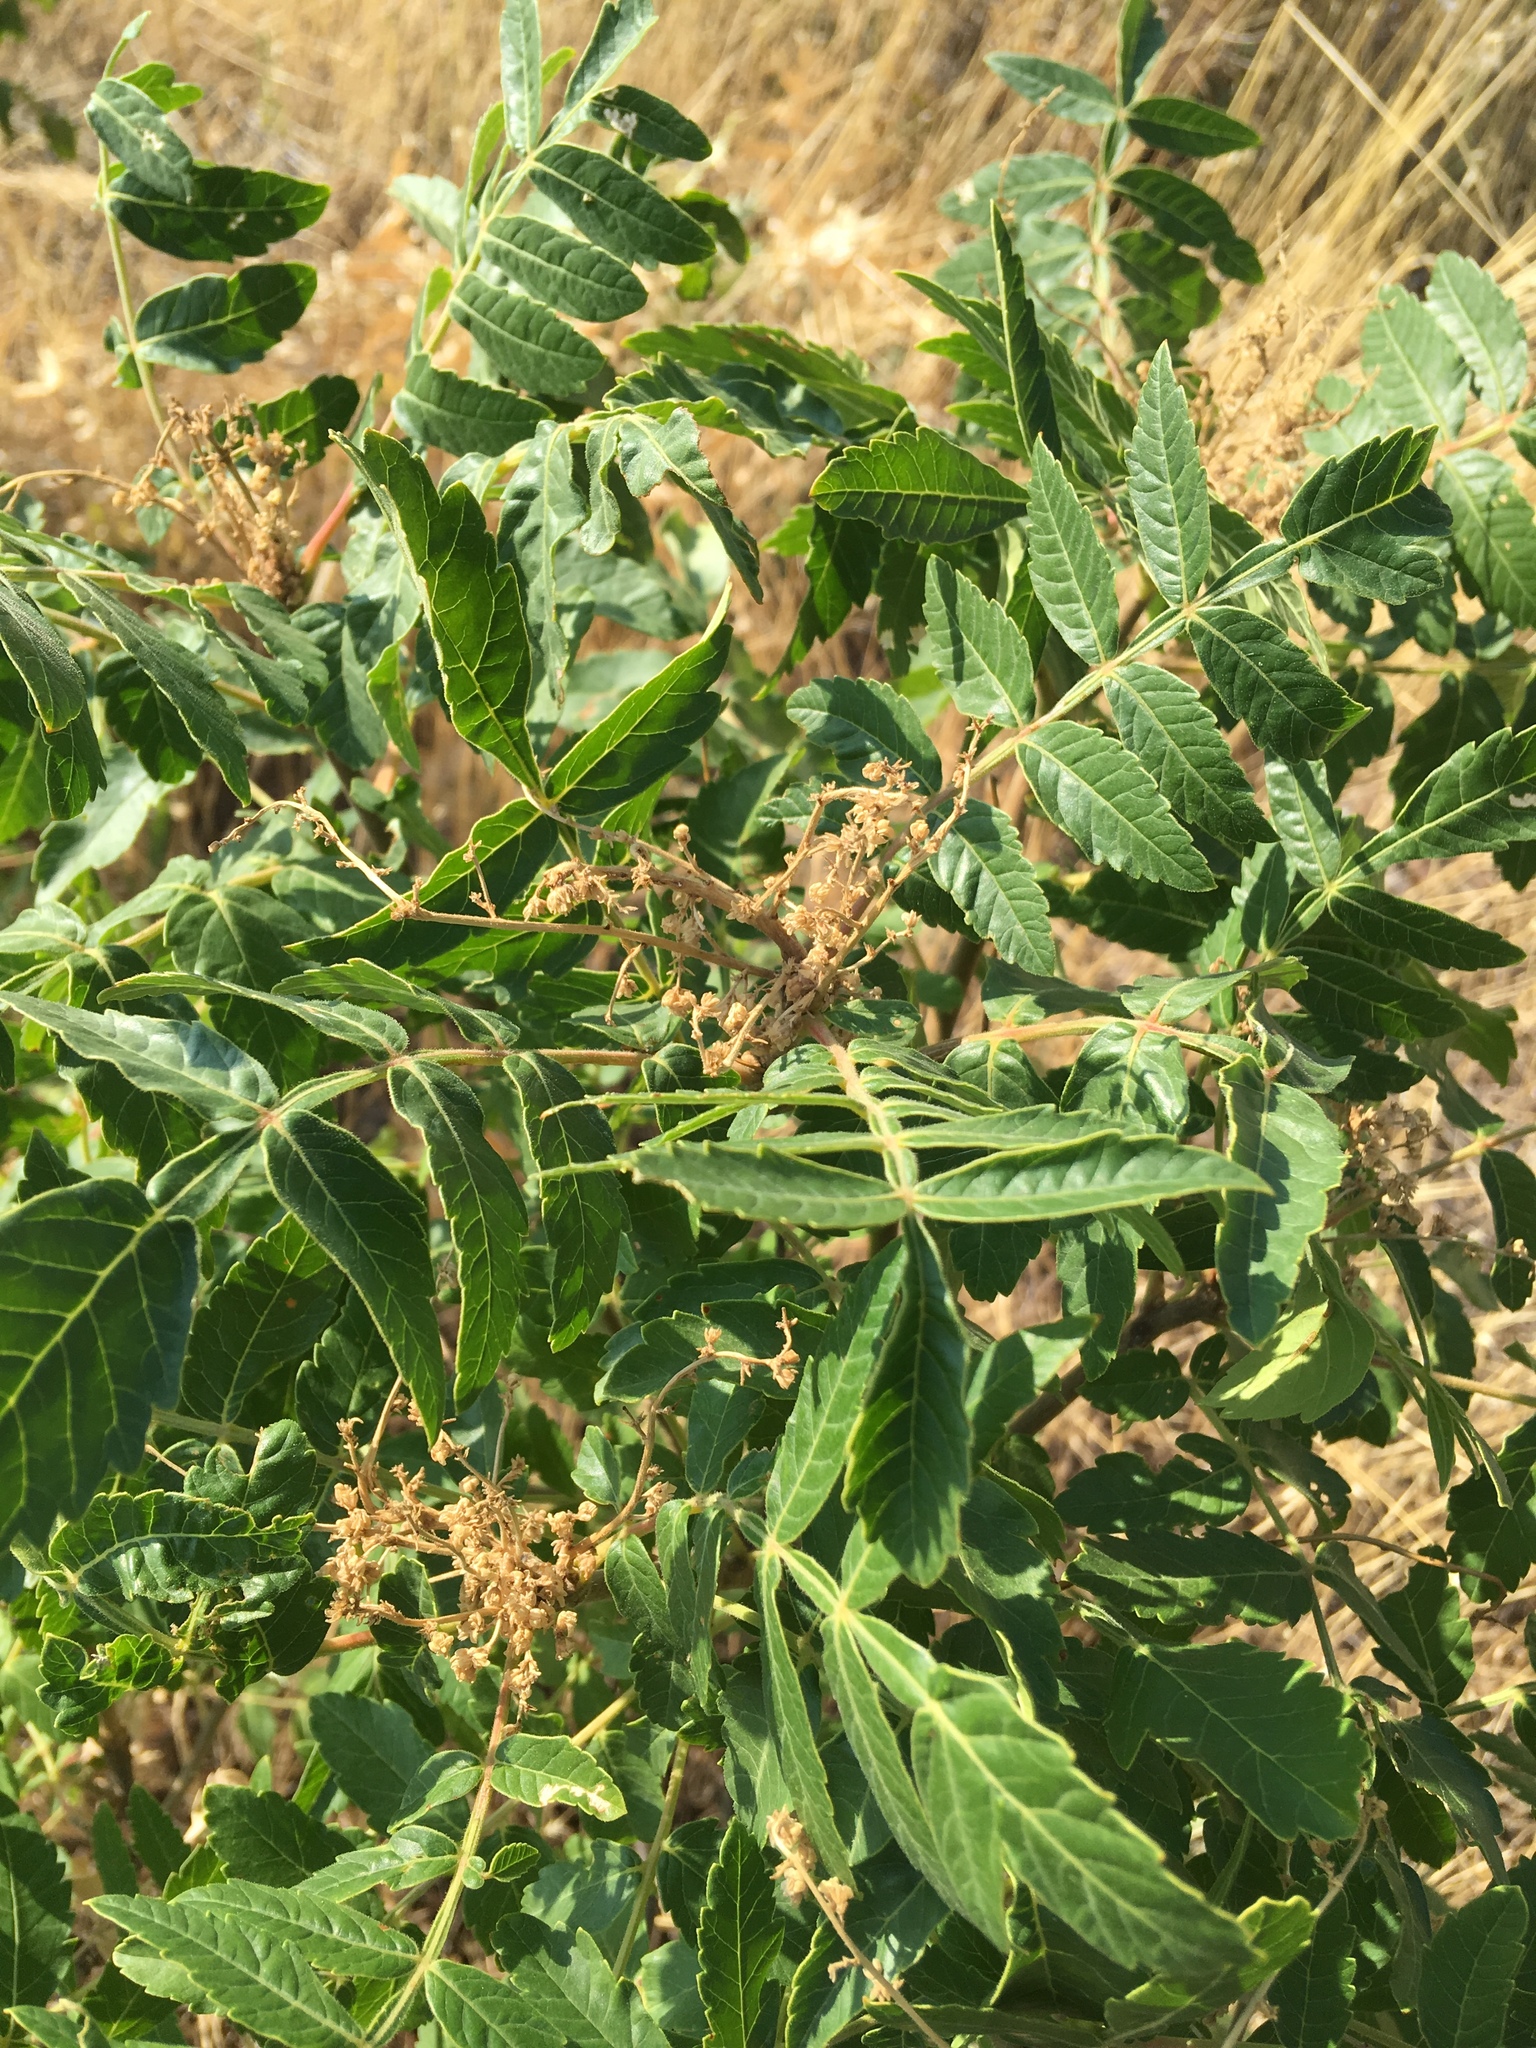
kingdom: Plantae
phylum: Tracheophyta
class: Magnoliopsida
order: Sapindales
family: Anacardiaceae
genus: Rhus
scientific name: Rhus coriaria
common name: Tanner's sumach
